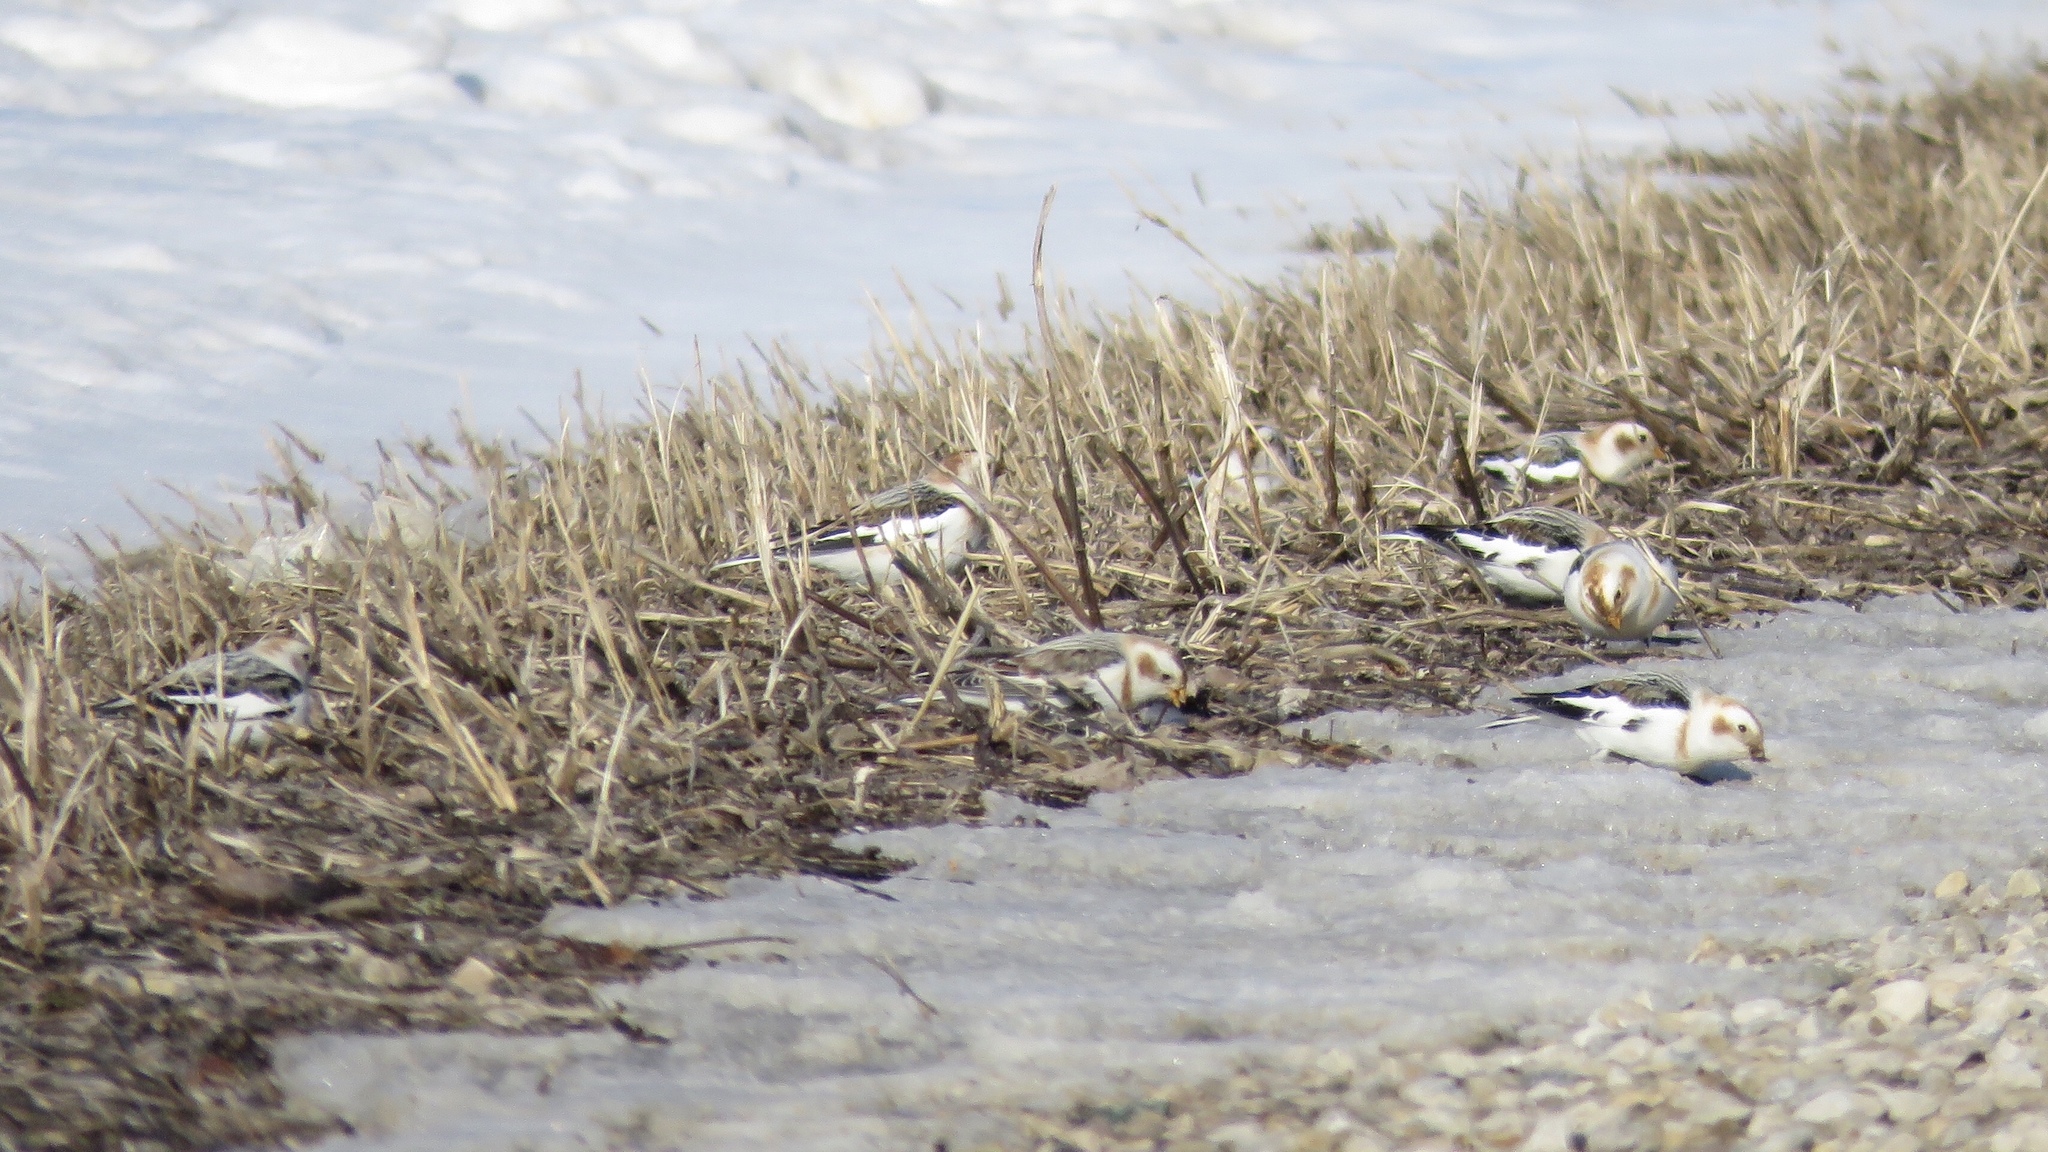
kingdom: Animalia
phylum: Chordata
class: Aves
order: Passeriformes
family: Calcariidae
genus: Plectrophenax
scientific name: Plectrophenax nivalis
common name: Snow bunting
